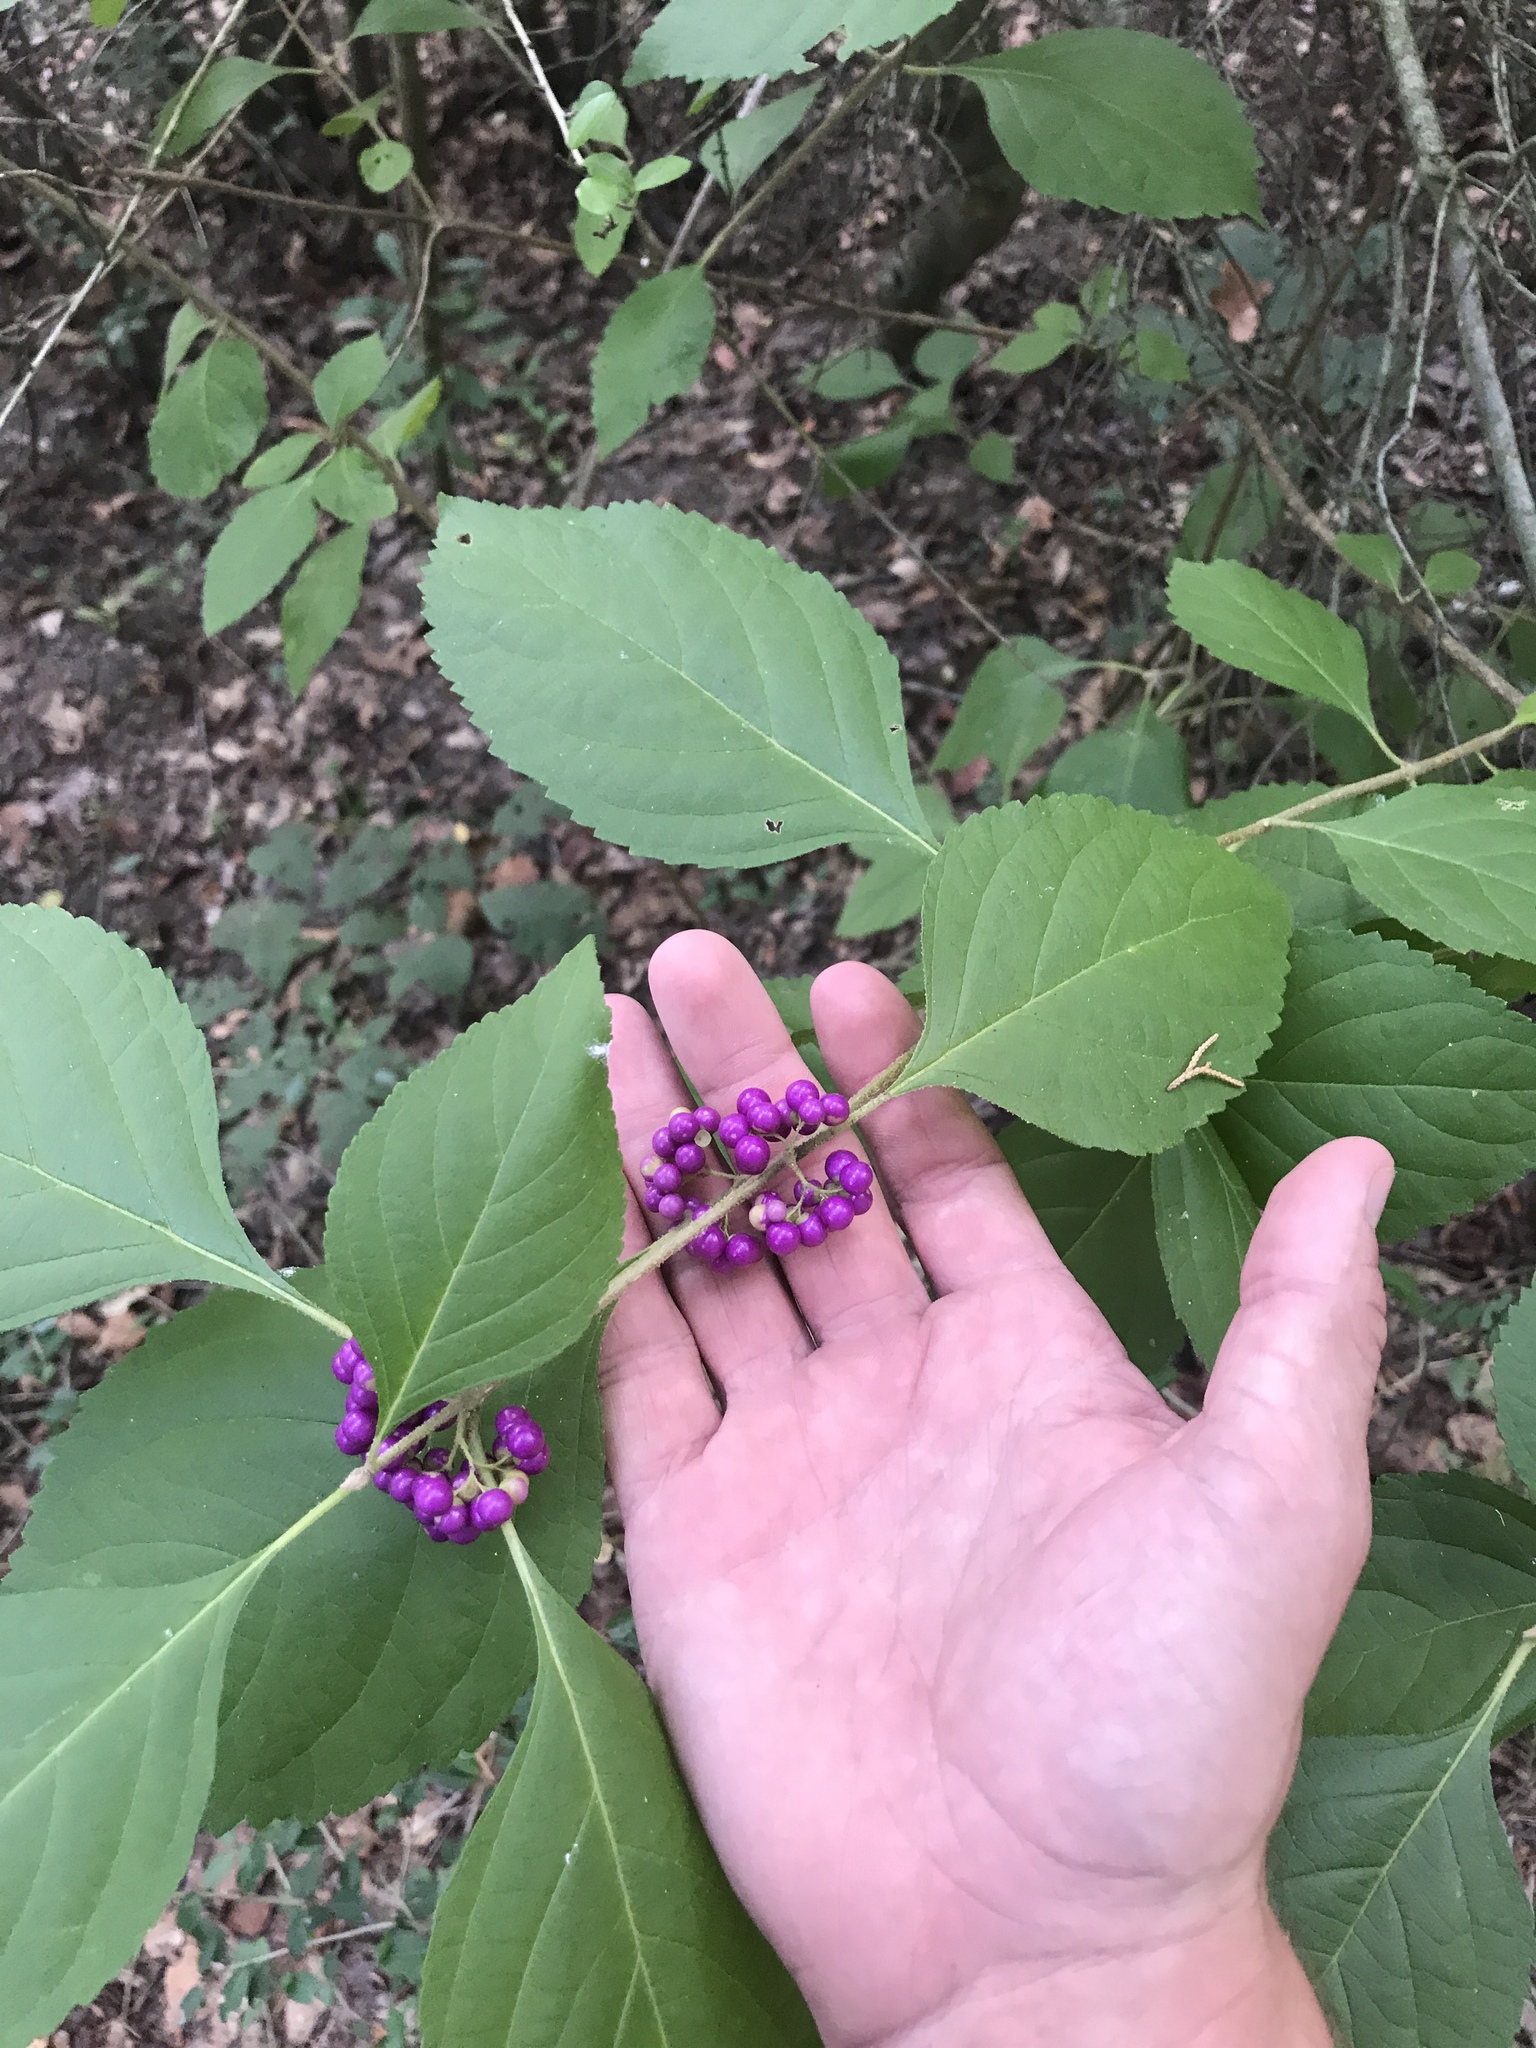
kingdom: Plantae
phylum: Tracheophyta
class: Magnoliopsida
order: Lamiales
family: Lamiaceae
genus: Callicarpa
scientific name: Callicarpa americana
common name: American beautyberry
